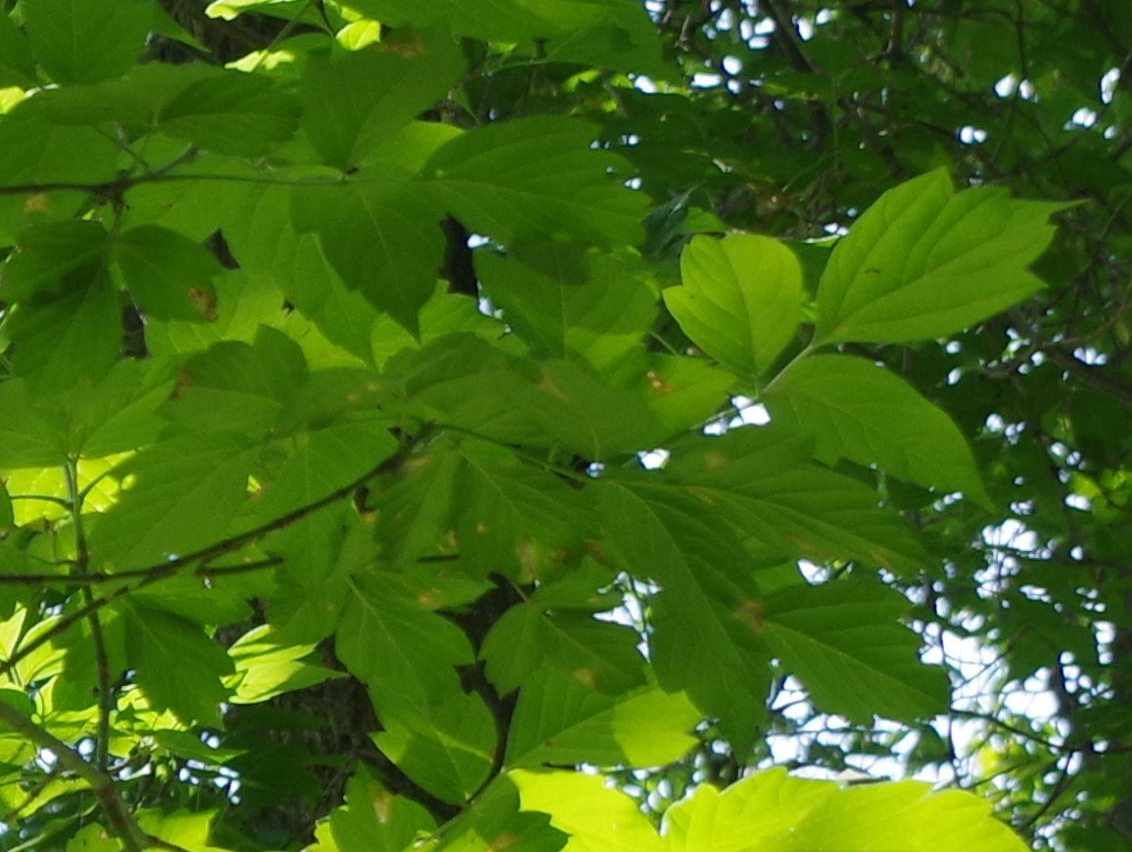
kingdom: Plantae
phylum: Tracheophyta
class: Magnoliopsida
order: Sapindales
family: Sapindaceae
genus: Acer
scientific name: Acer negundo
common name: Ashleaf maple
